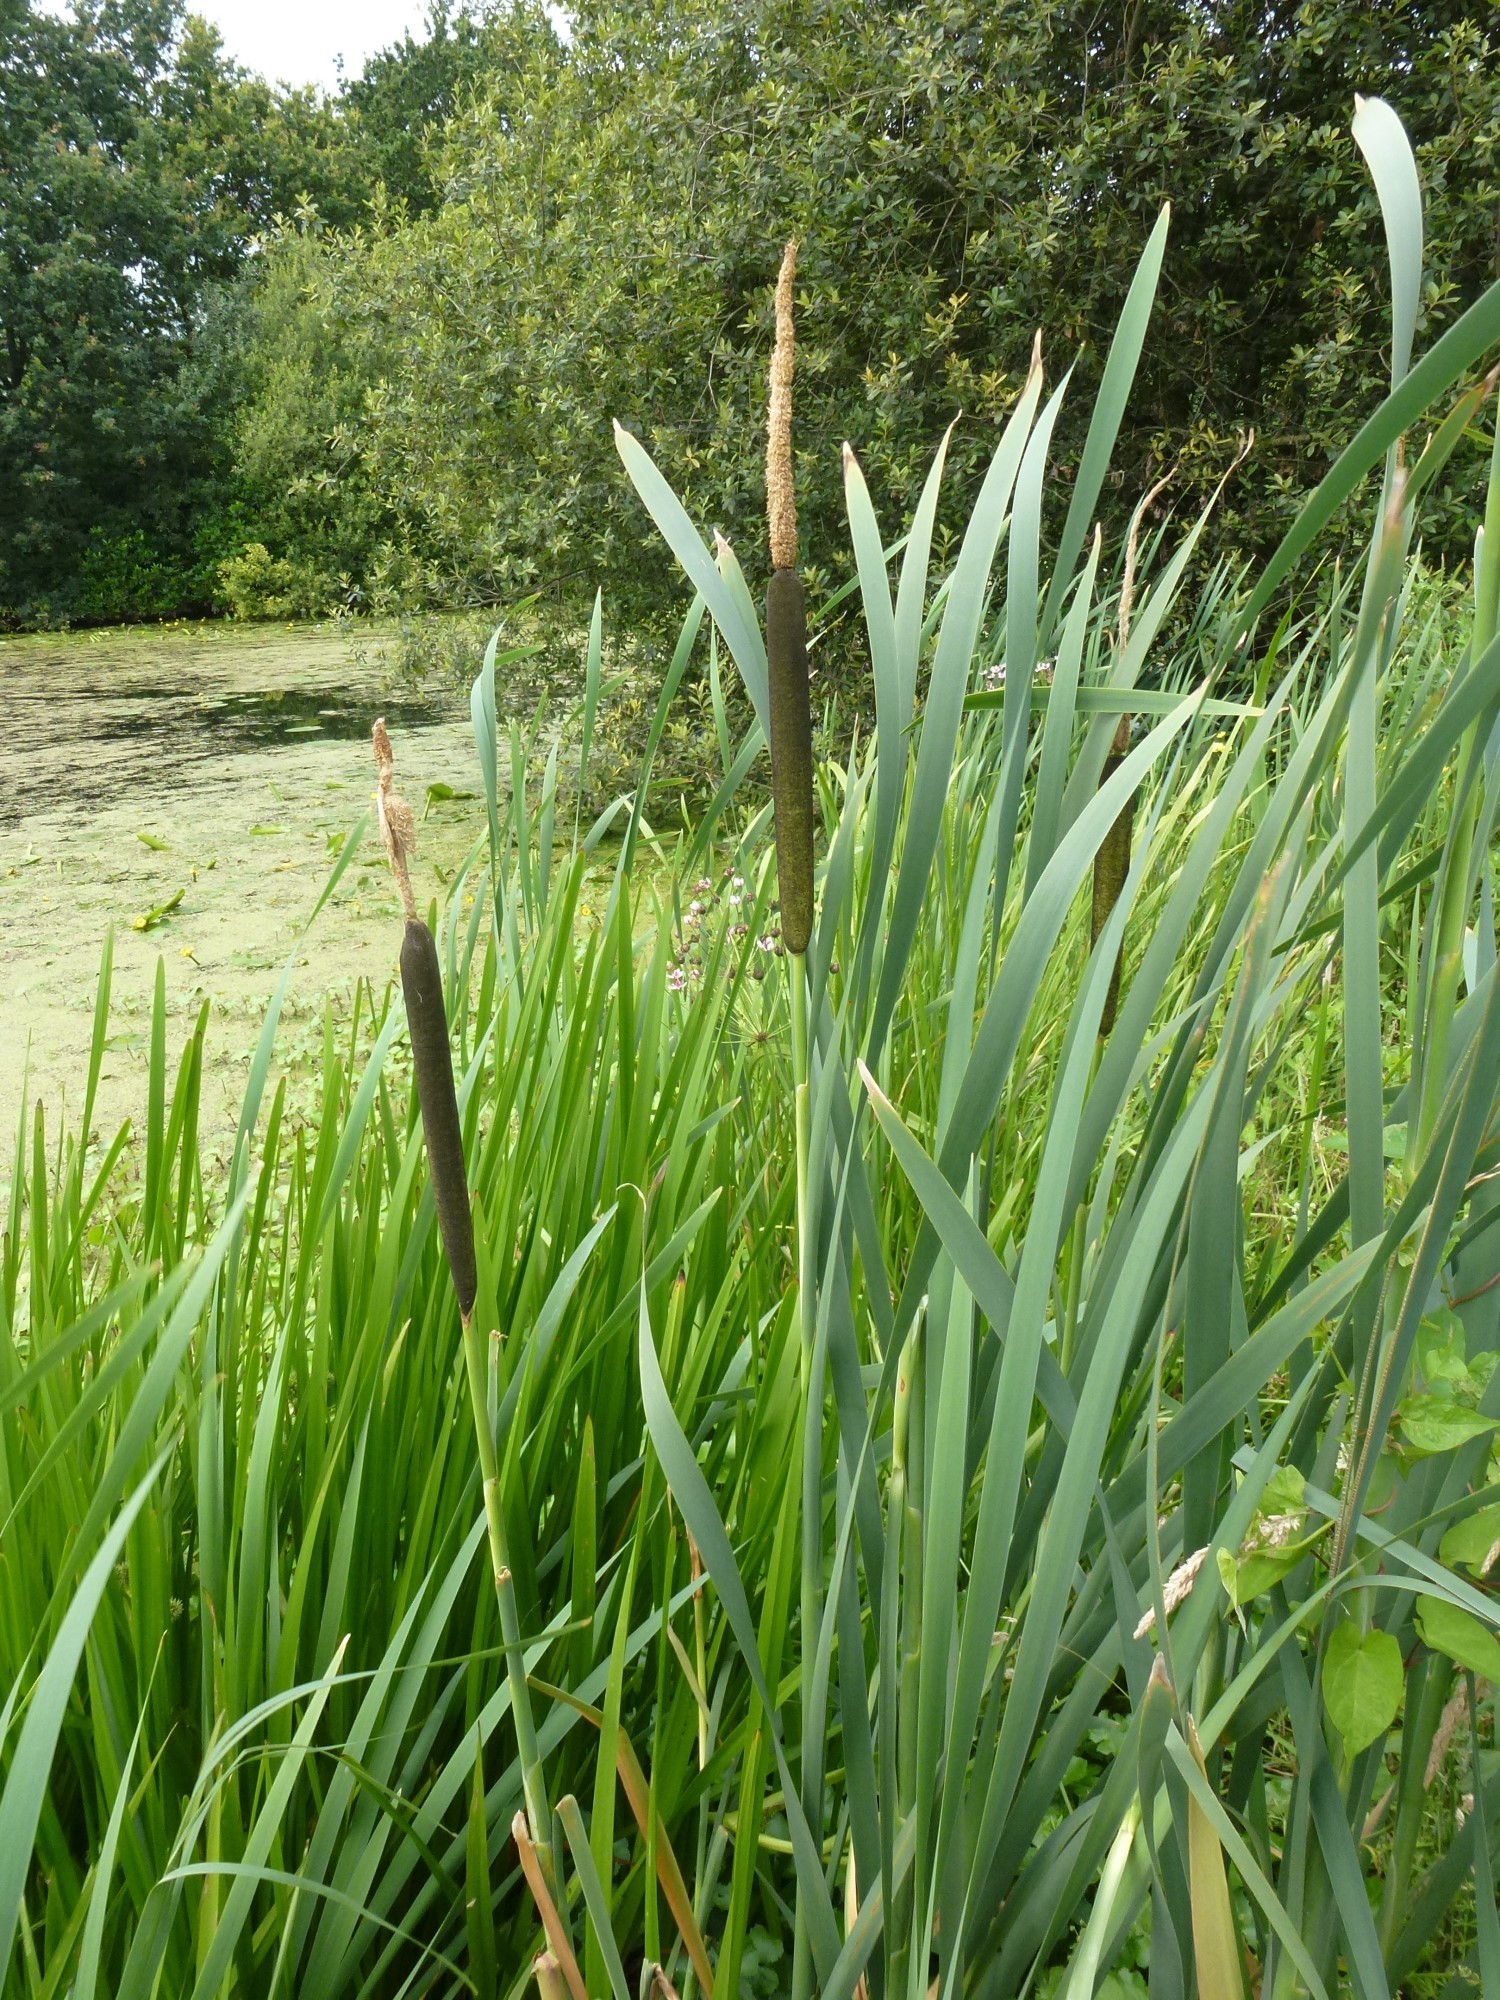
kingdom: Plantae
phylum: Tracheophyta
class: Liliopsida
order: Poales
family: Typhaceae
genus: Typha
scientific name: Typha latifolia
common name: Broadleaf cattail
